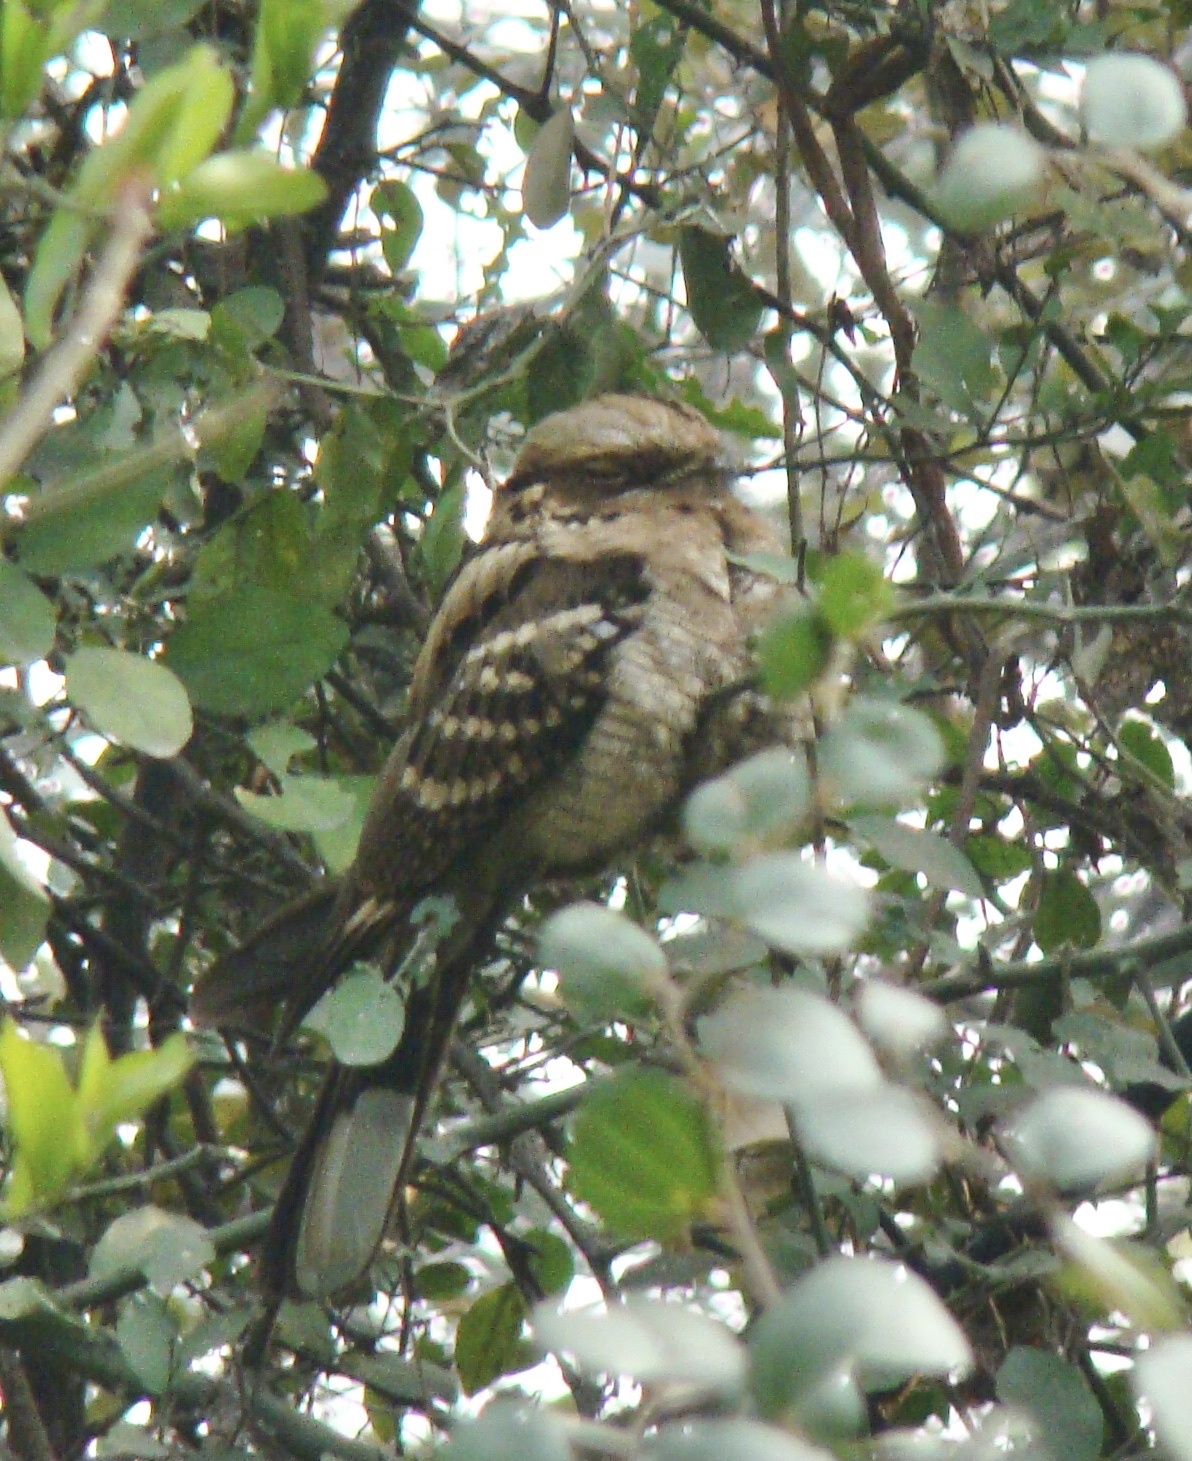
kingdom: Animalia
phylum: Chordata
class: Aves
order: Caprimulgiformes
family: Caprimulgidae
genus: Caprimulgus
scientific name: Caprimulgus macrurus
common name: Large-tailed nightjar
